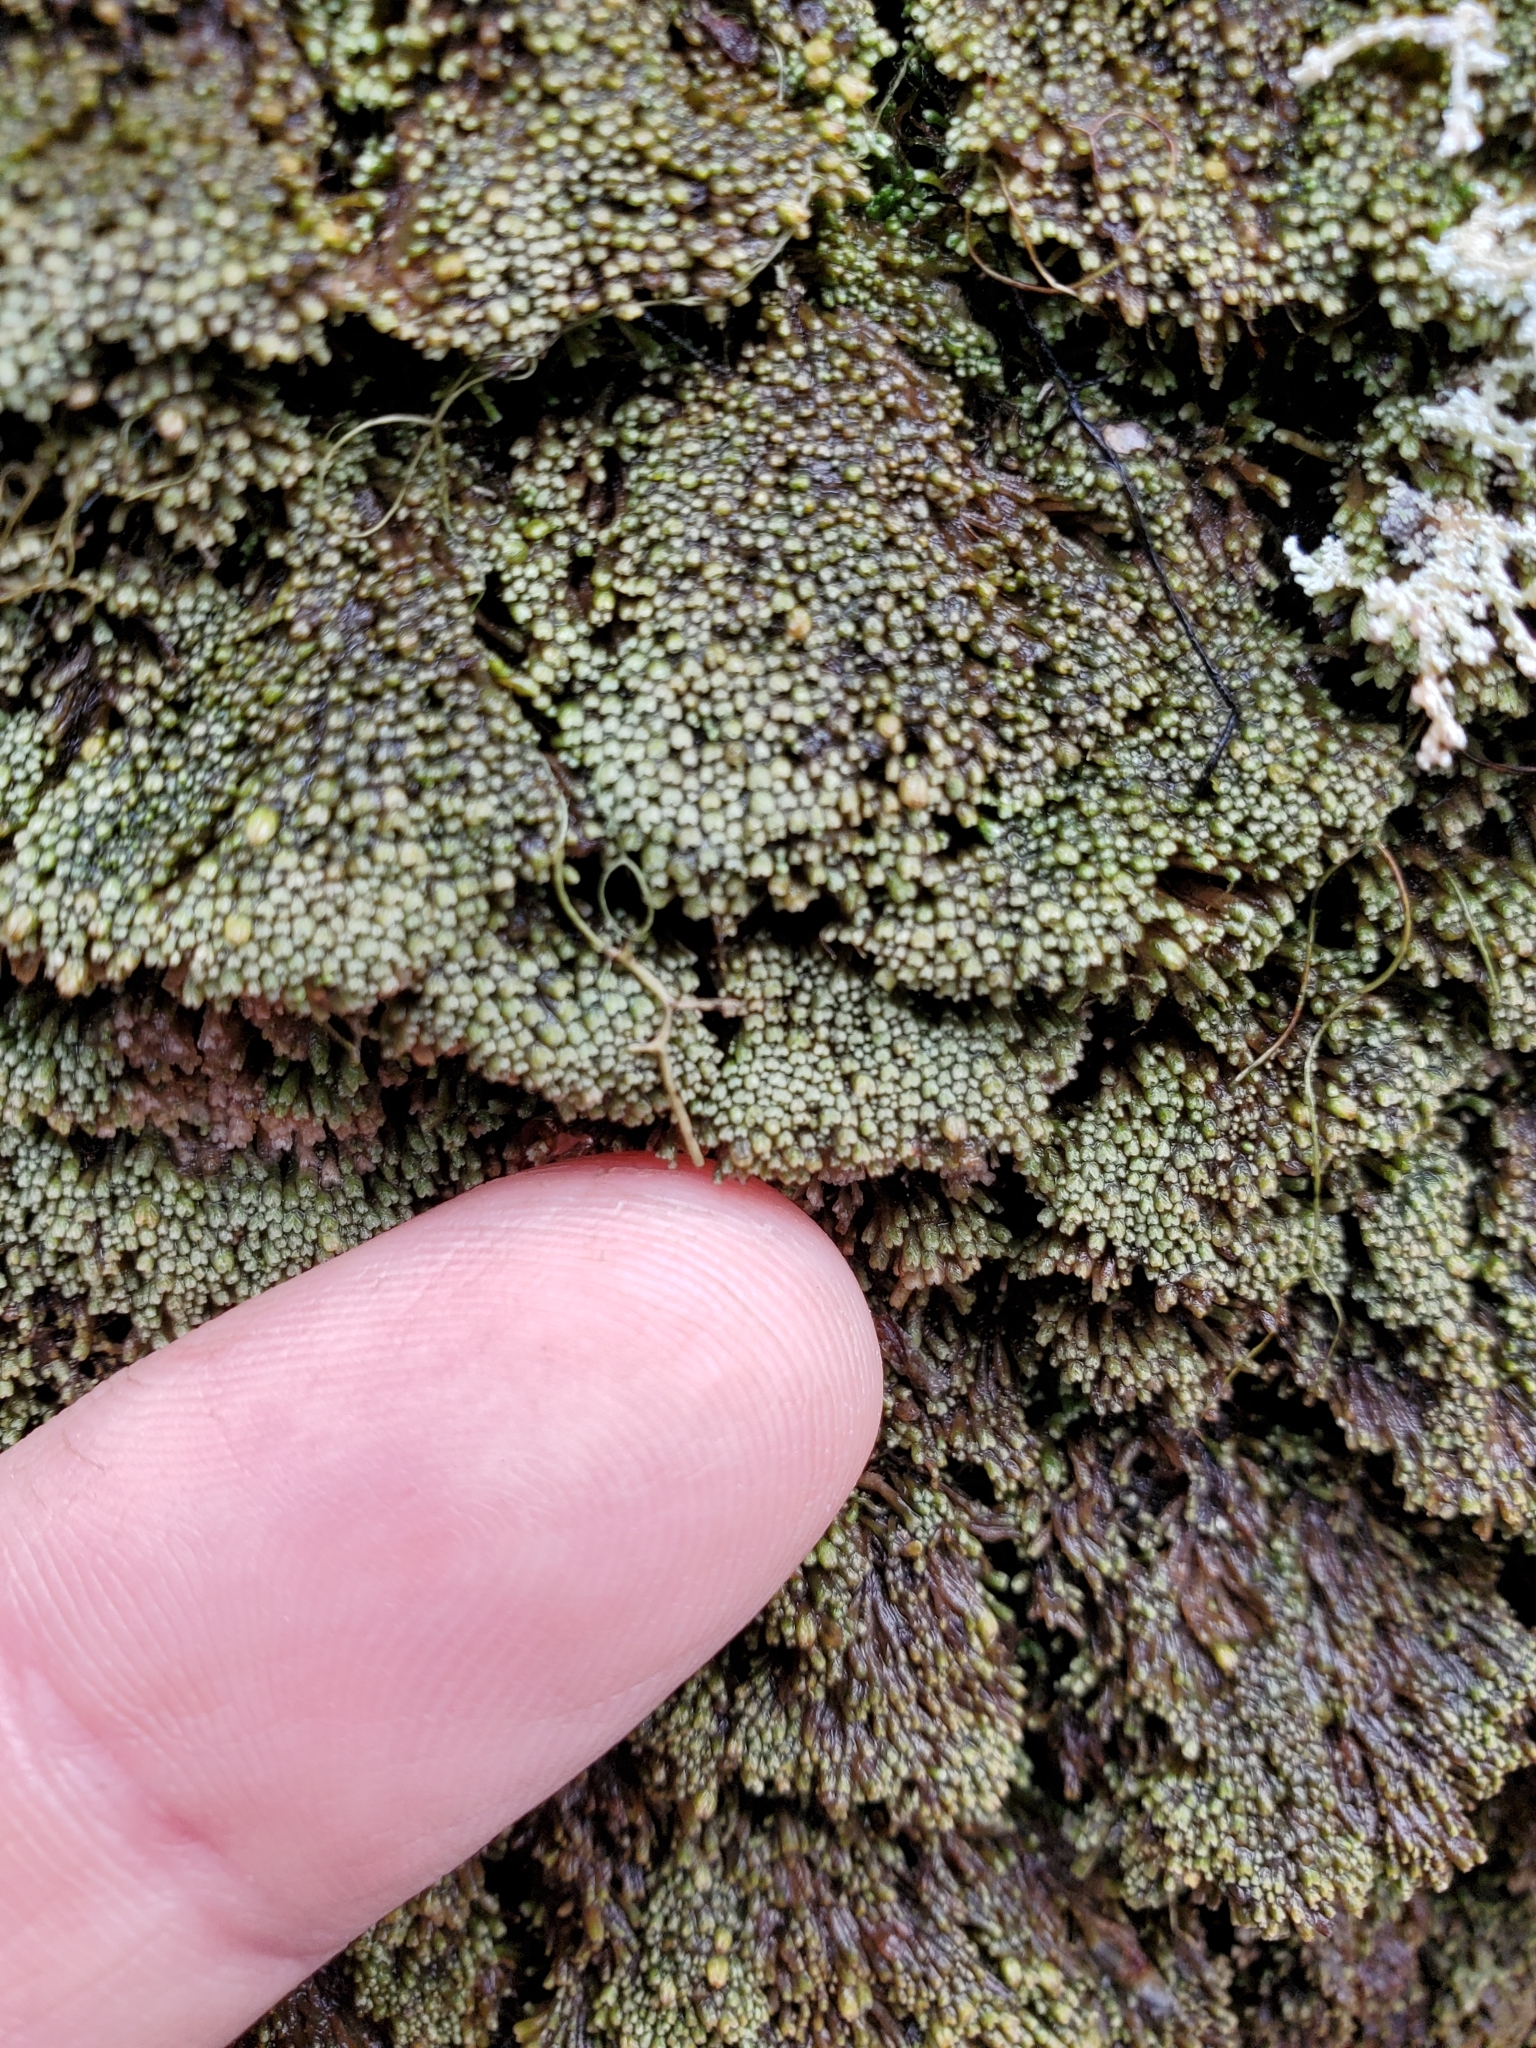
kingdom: Plantae
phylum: Marchantiophyta
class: Jungermanniopsida
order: Jungermanniales
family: Gymnomitriaceae
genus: Gymnomitrion
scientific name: Gymnomitrion obtusum
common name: White frostwort
